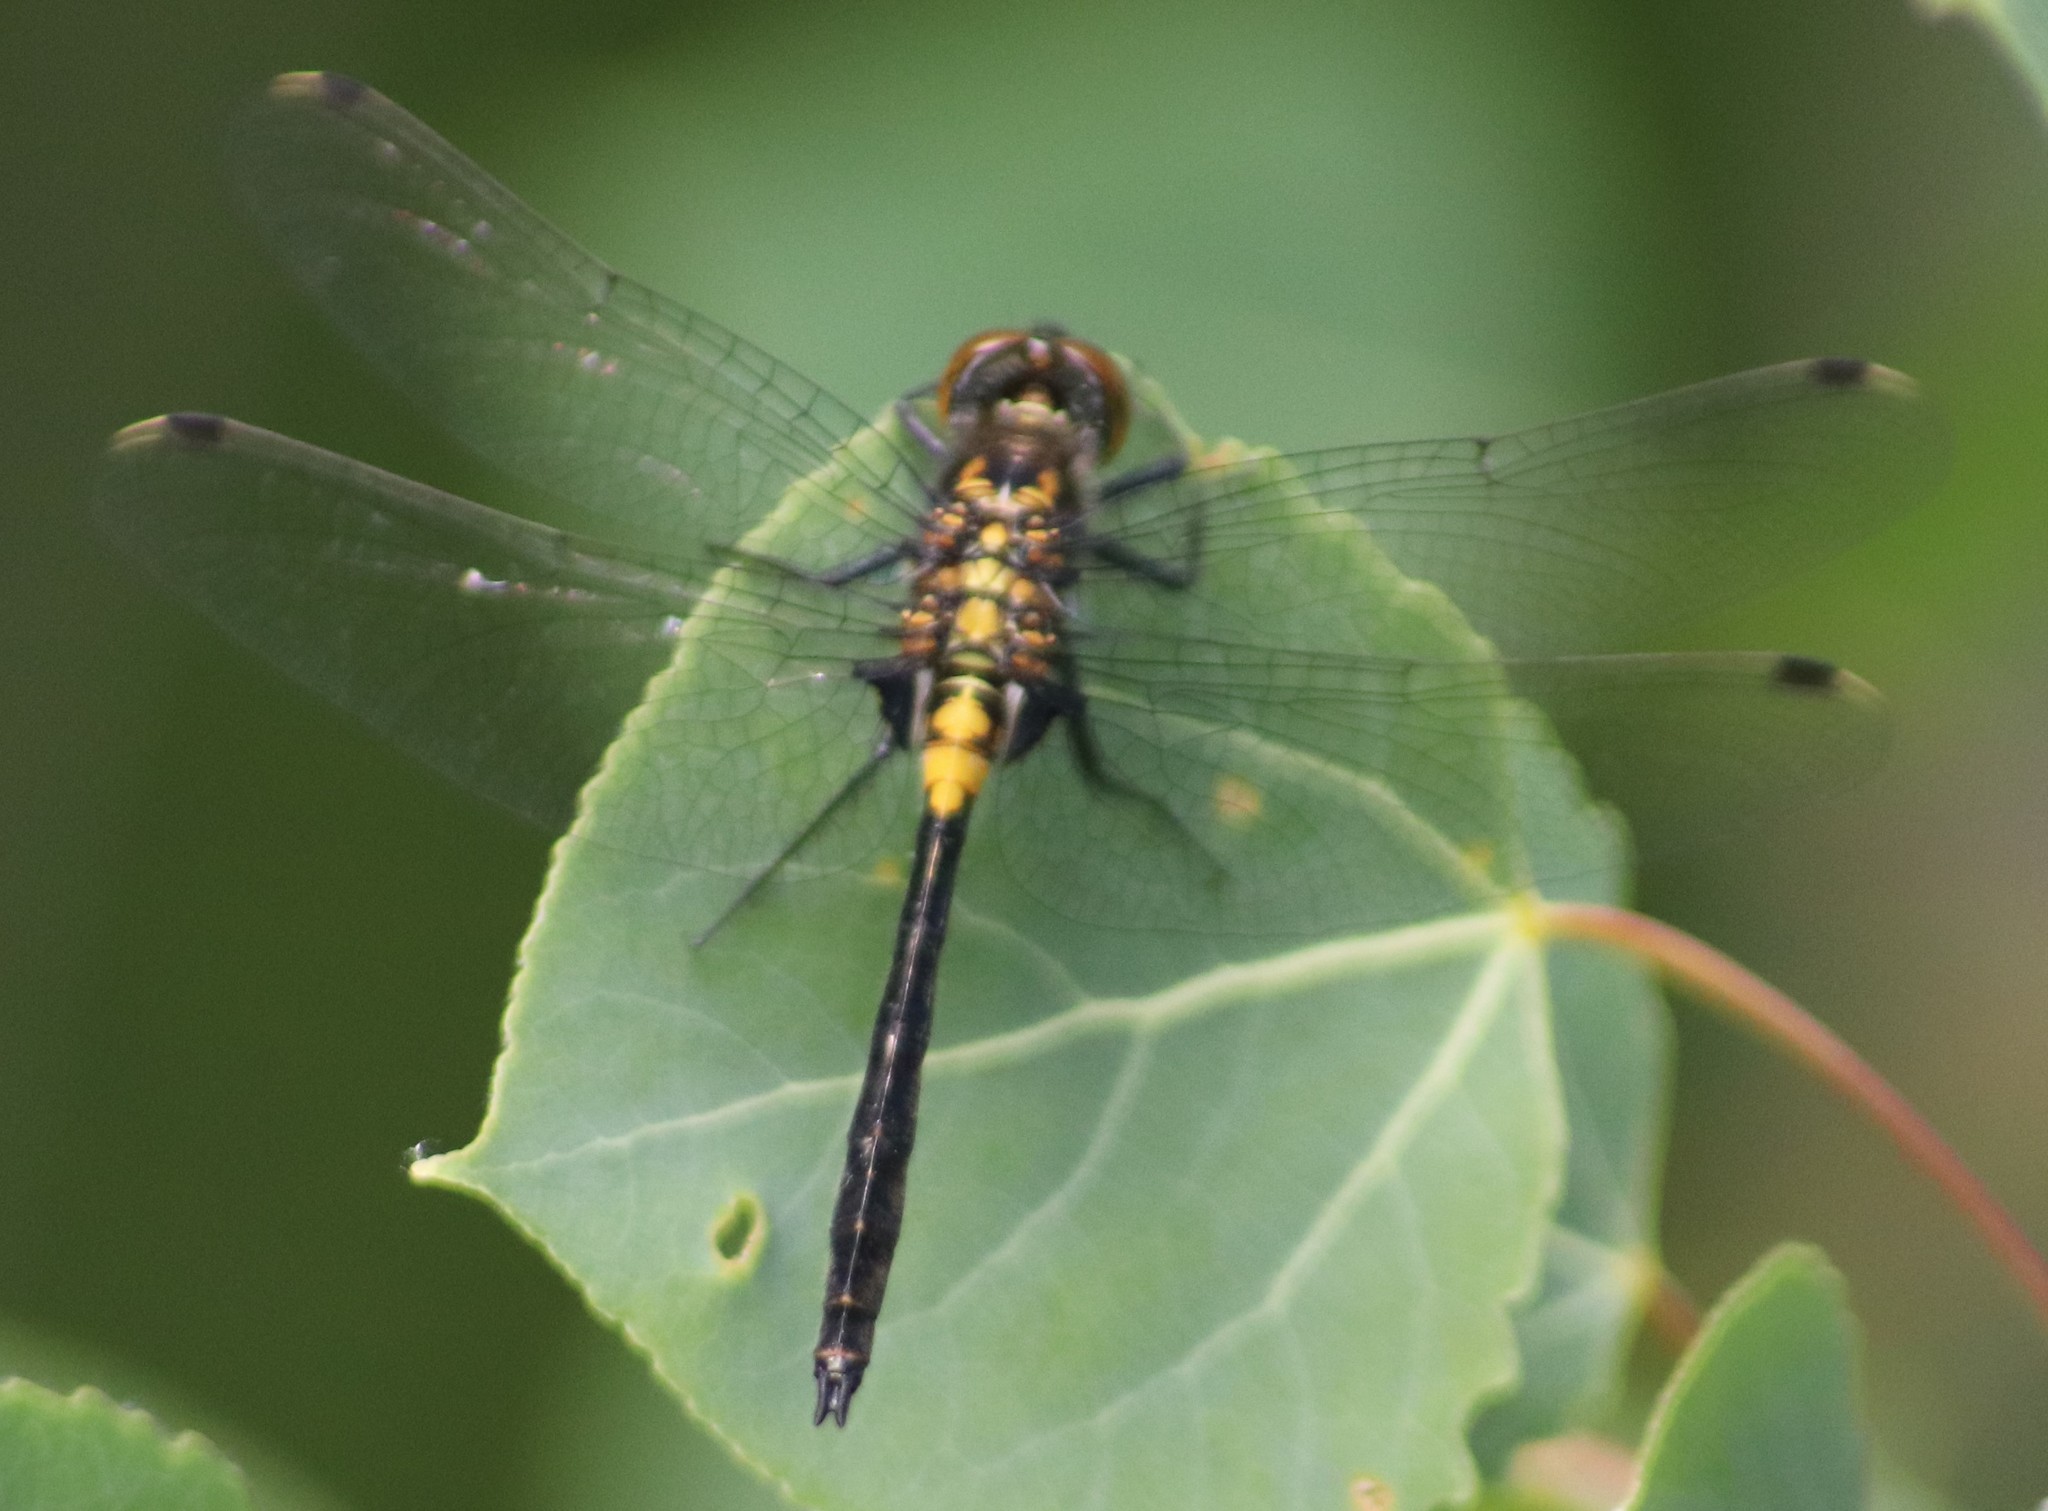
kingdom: Animalia
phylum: Arthropoda
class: Insecta
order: Odonata
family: Libellulidae
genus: Leucorrhinia
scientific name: Leucorrhinia proxima
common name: Belted whiteface
